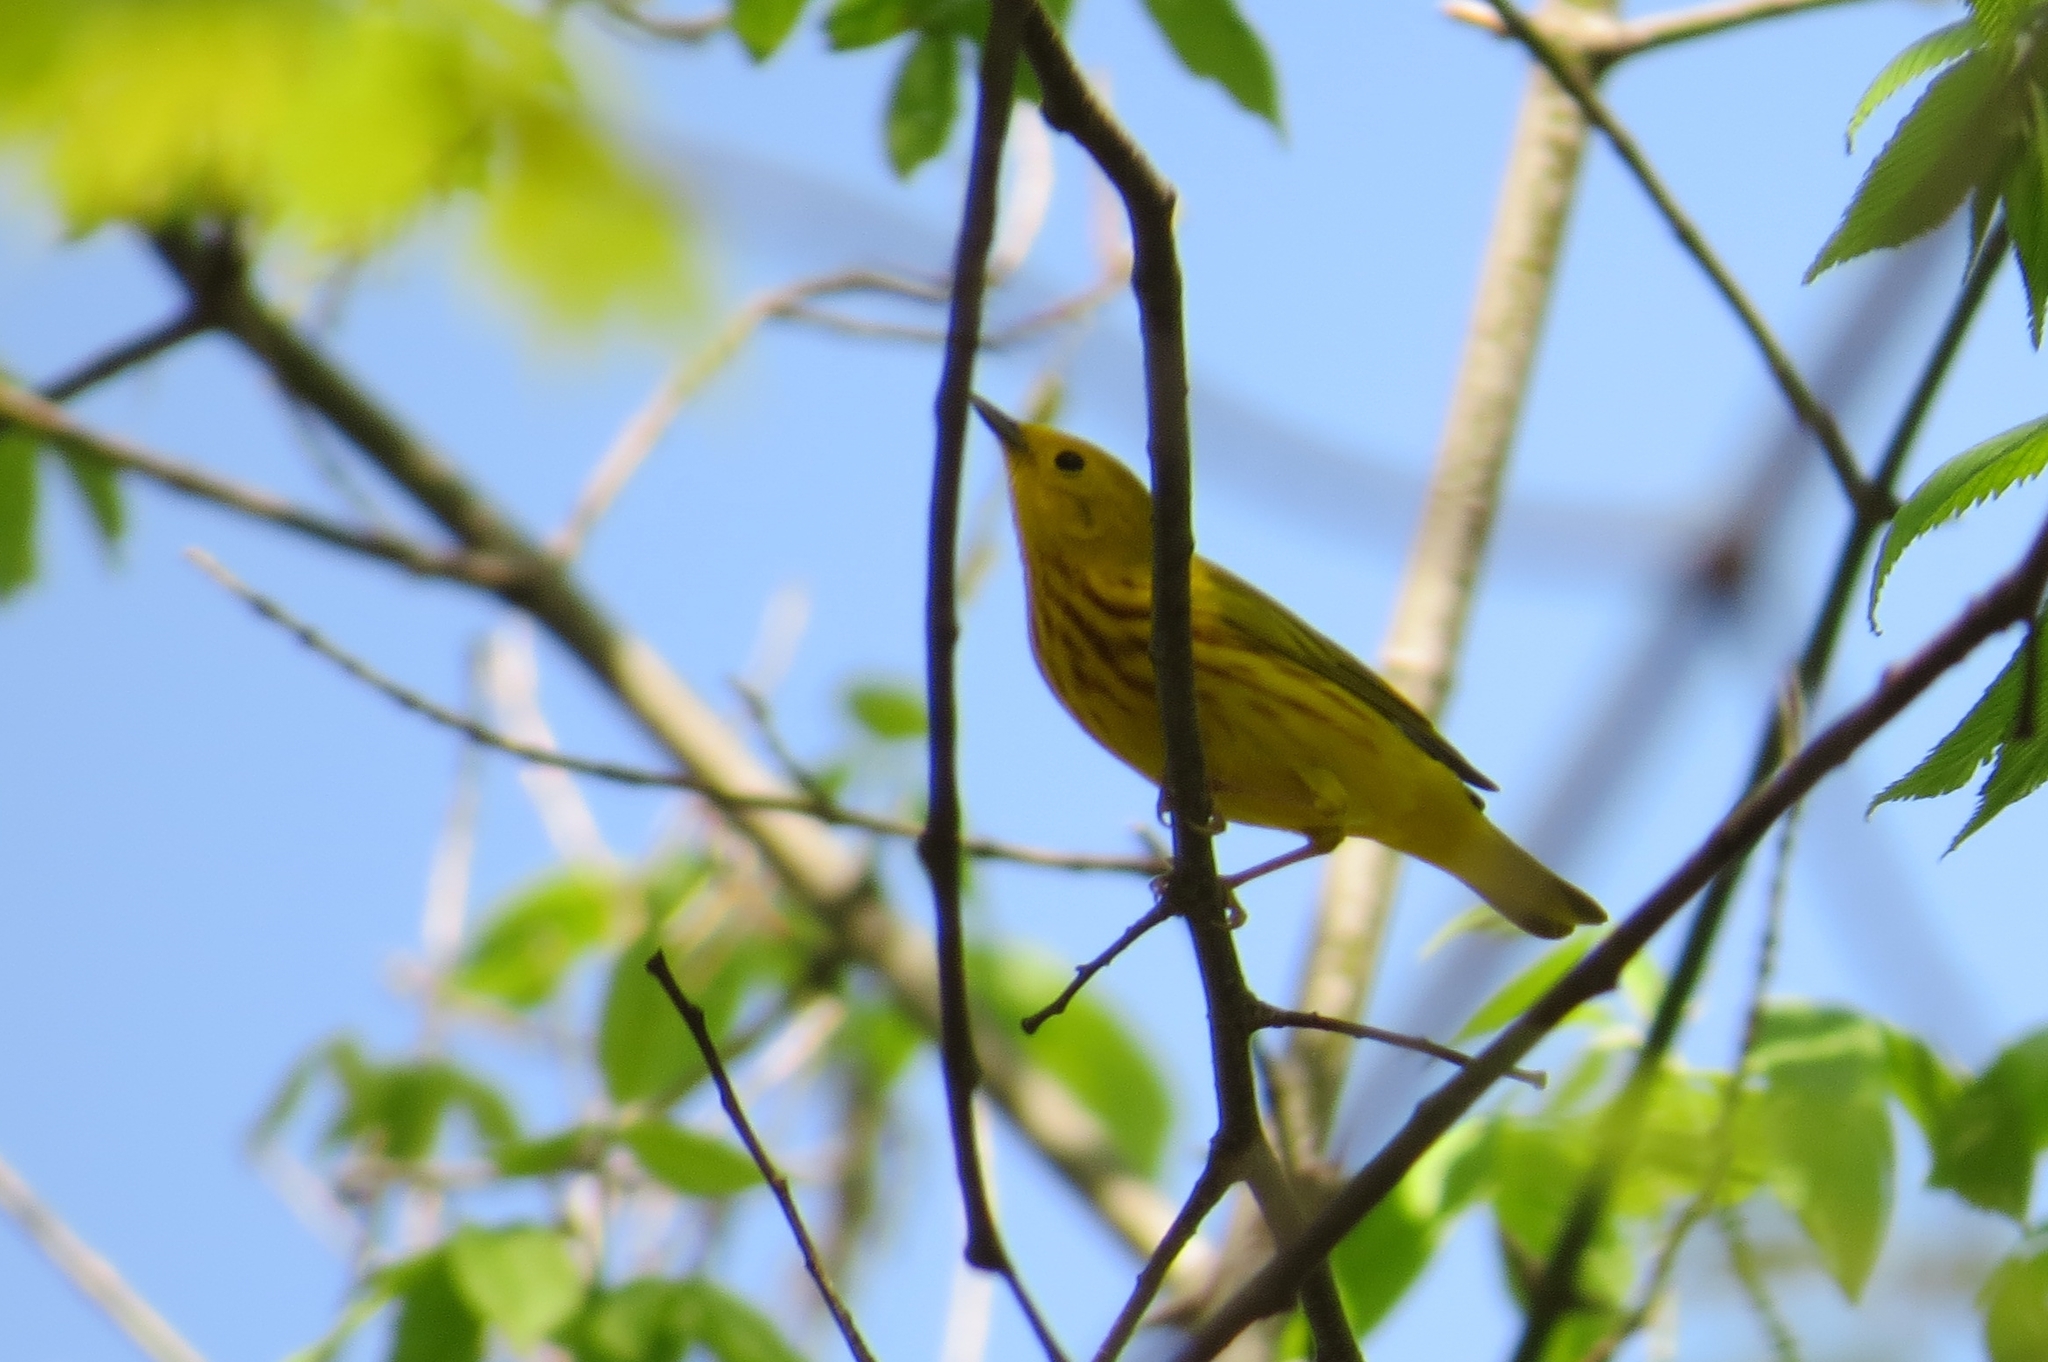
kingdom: Animalia
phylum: Chordata
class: Aves
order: Passeriformes
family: Parulidae
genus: Setophaga
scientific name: Setophaga petechia
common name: Yellow warbler
